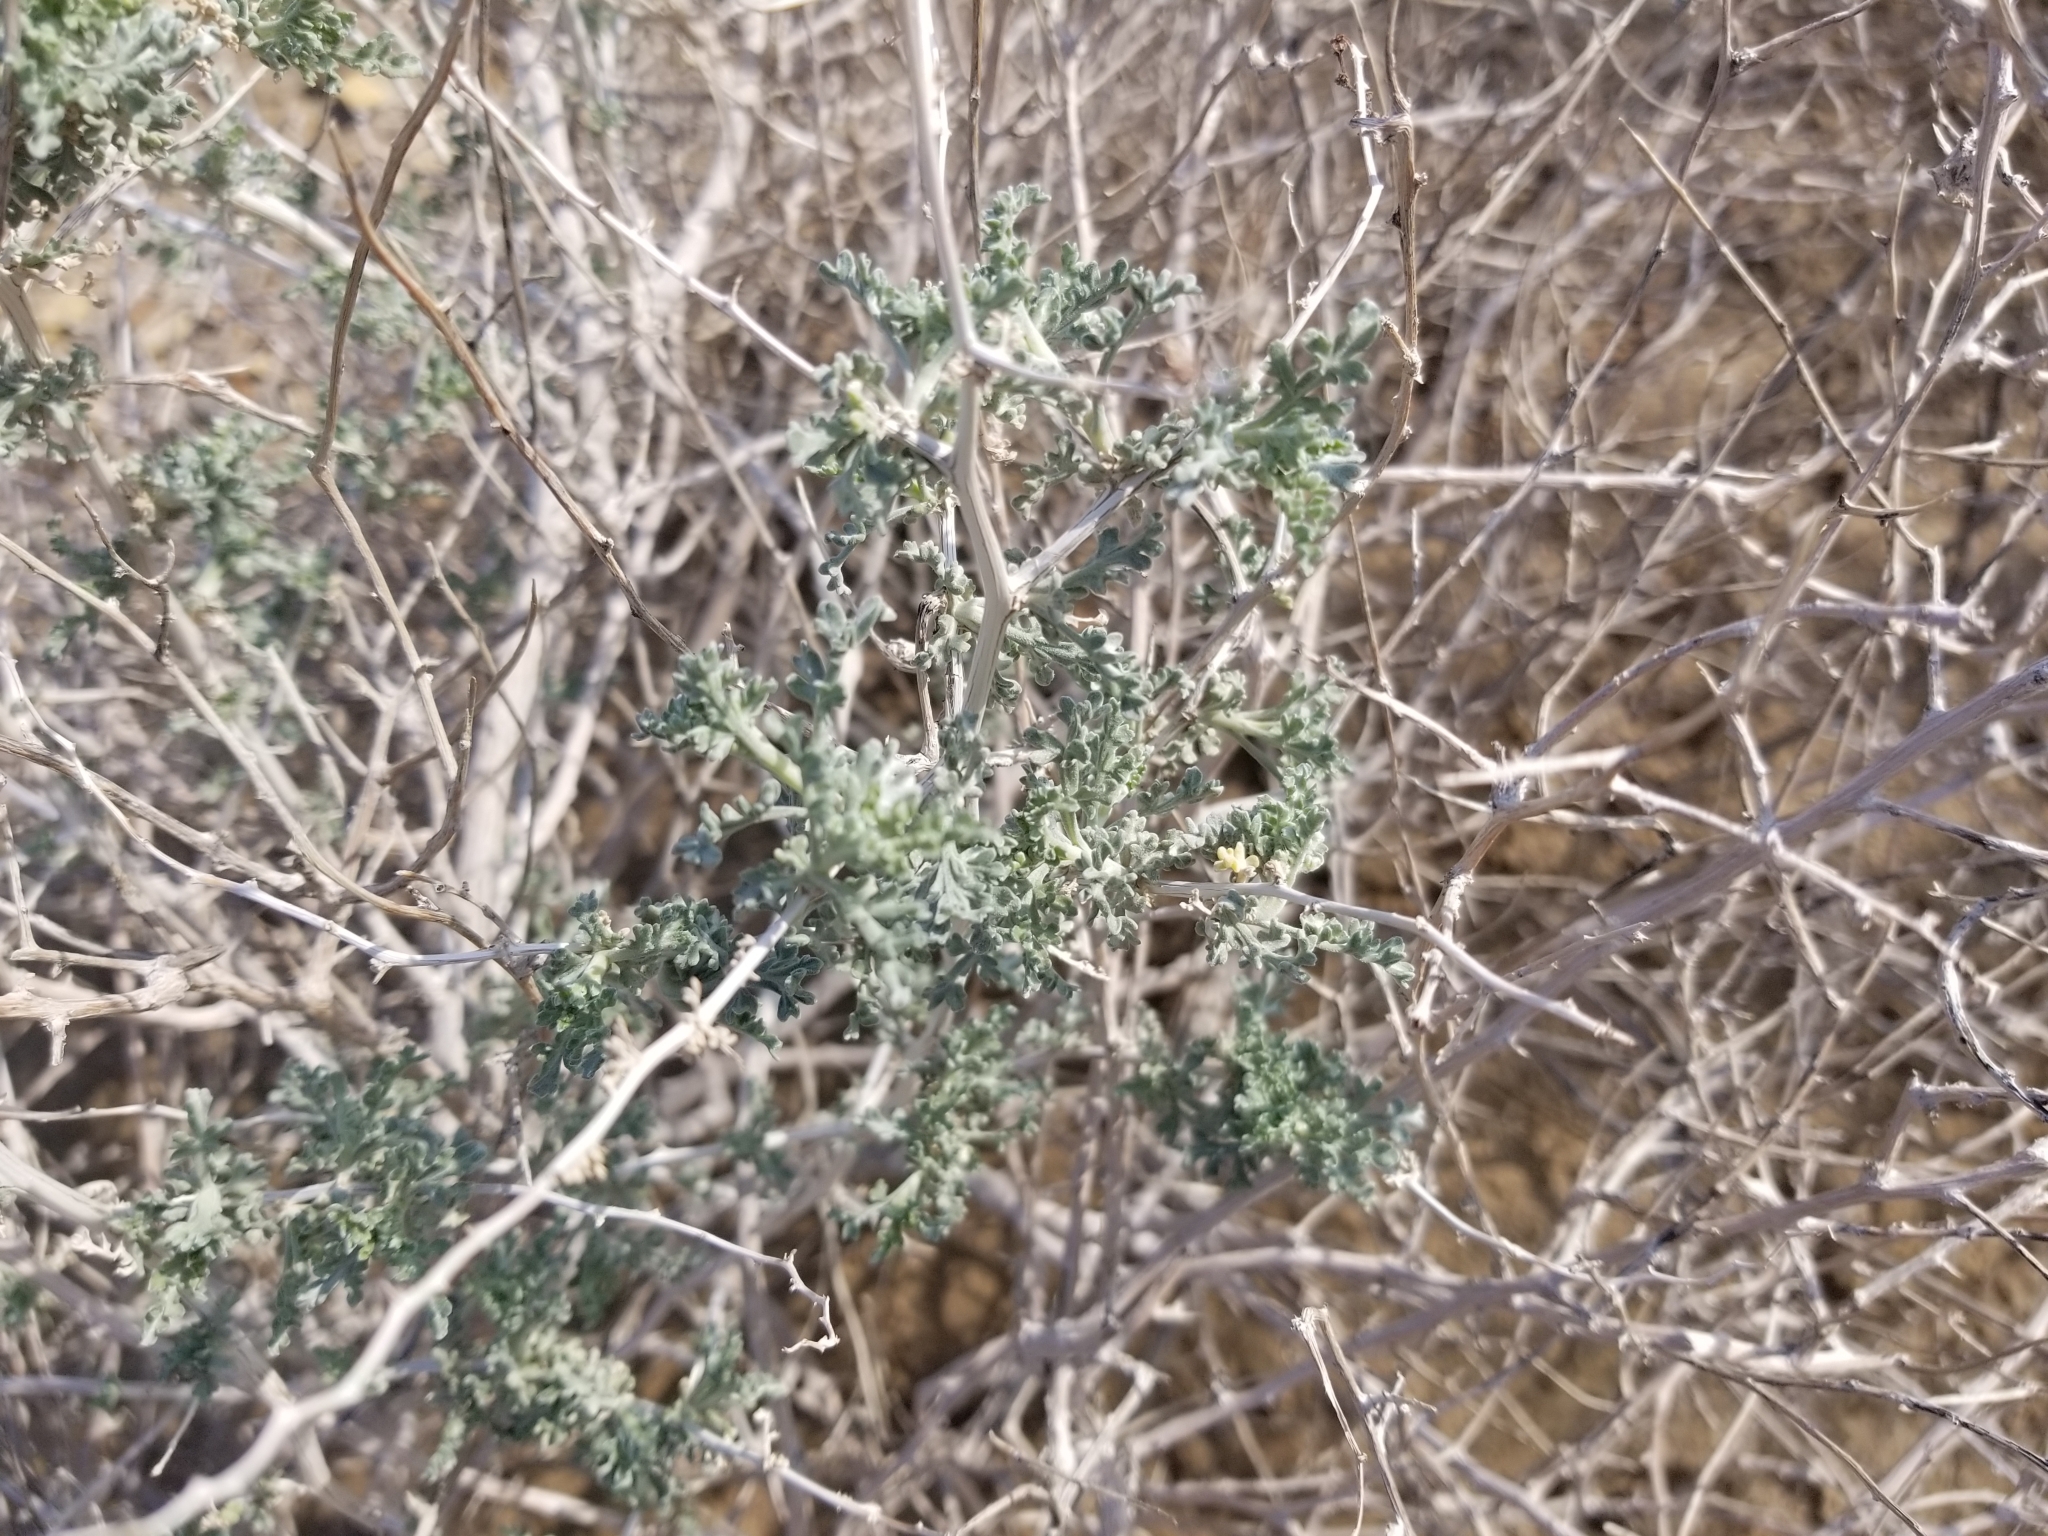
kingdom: Plantae
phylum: Tracheophyta
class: Magnoliopsida
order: Asterales
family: Asteraceae
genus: Ambrosia
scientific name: Ambrosia dumosa
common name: Bur-sage
